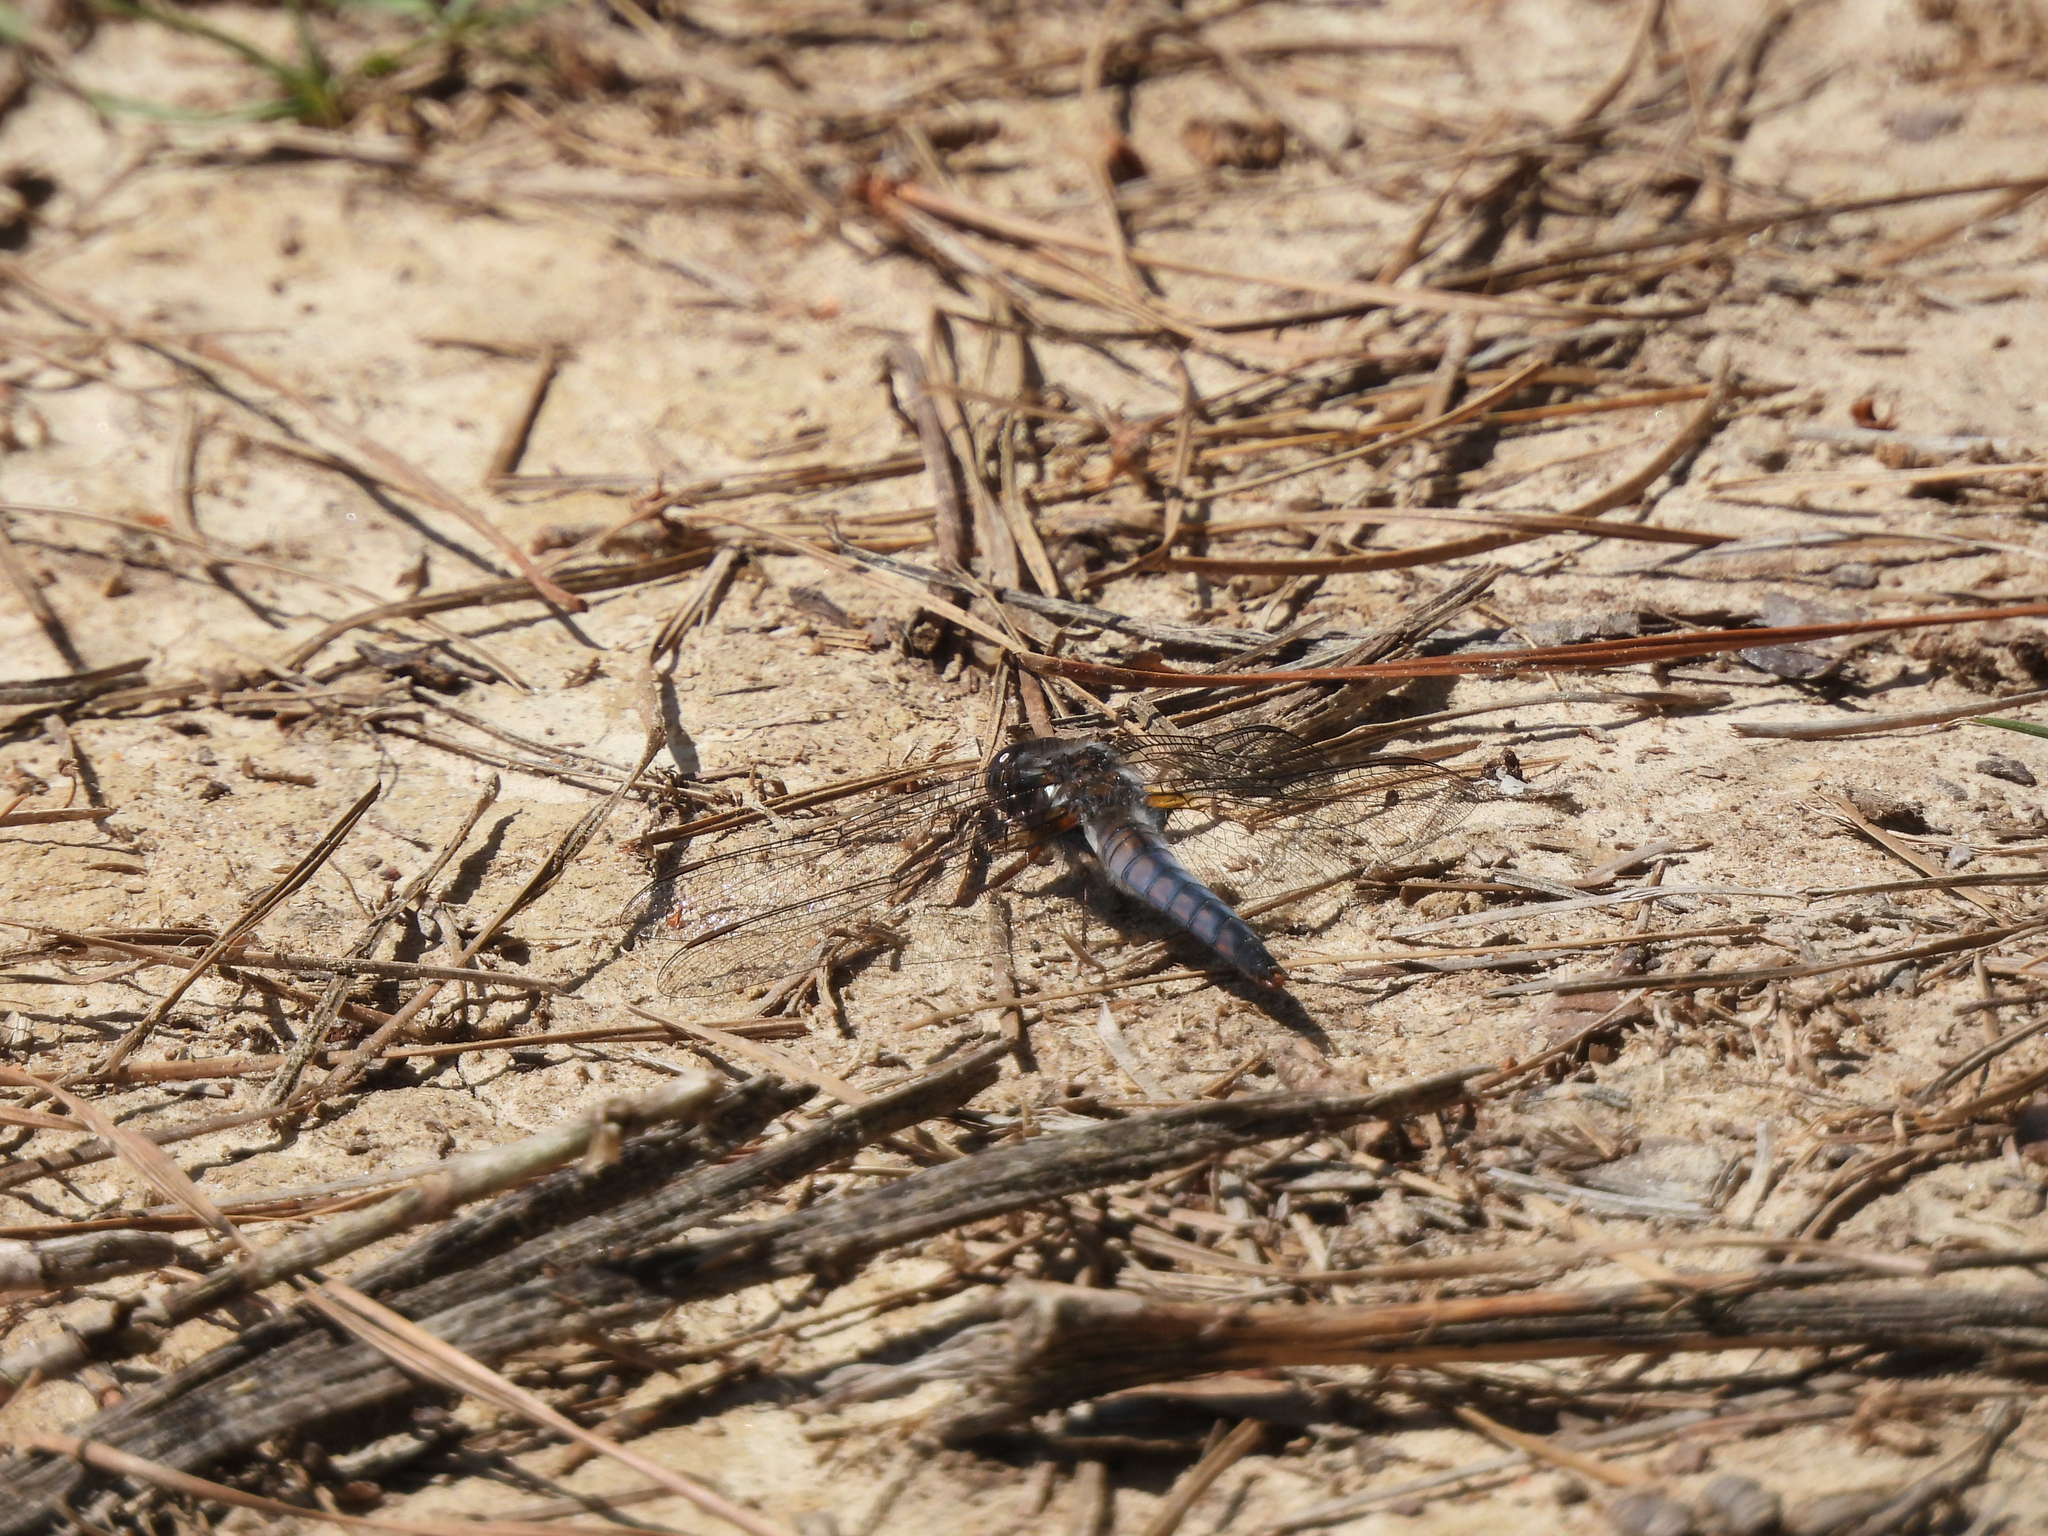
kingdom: Animalia
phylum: Arthropoda
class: Insecta
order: Odonata
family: Libellulidae
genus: Ladona
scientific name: Ladona deplanata
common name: Blue corporal
